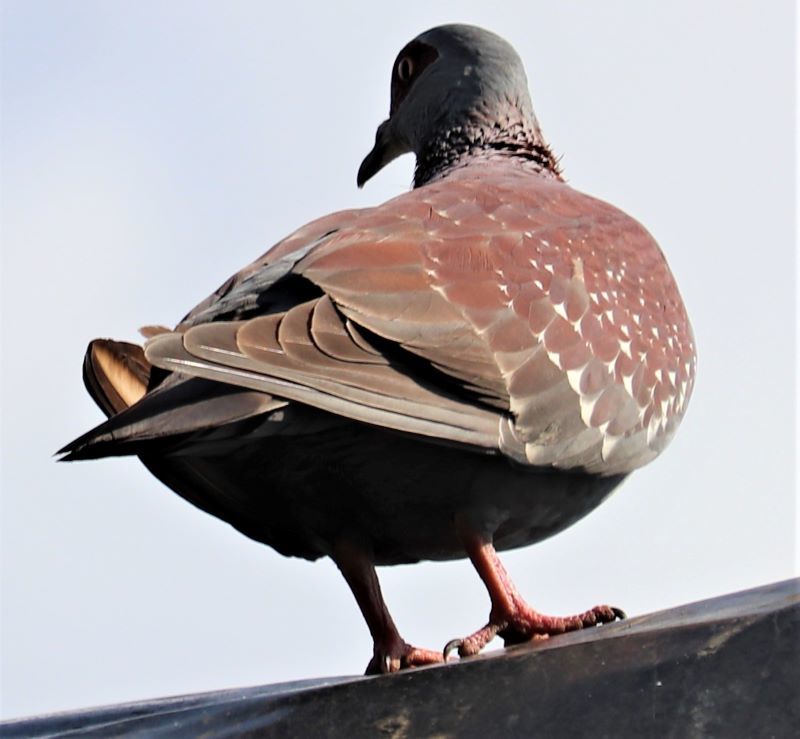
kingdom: Animalia
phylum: Chordata
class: Aves
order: Columbiformes
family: Columbidae
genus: Columba
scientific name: Columba guinea
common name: Speckled pigeon
